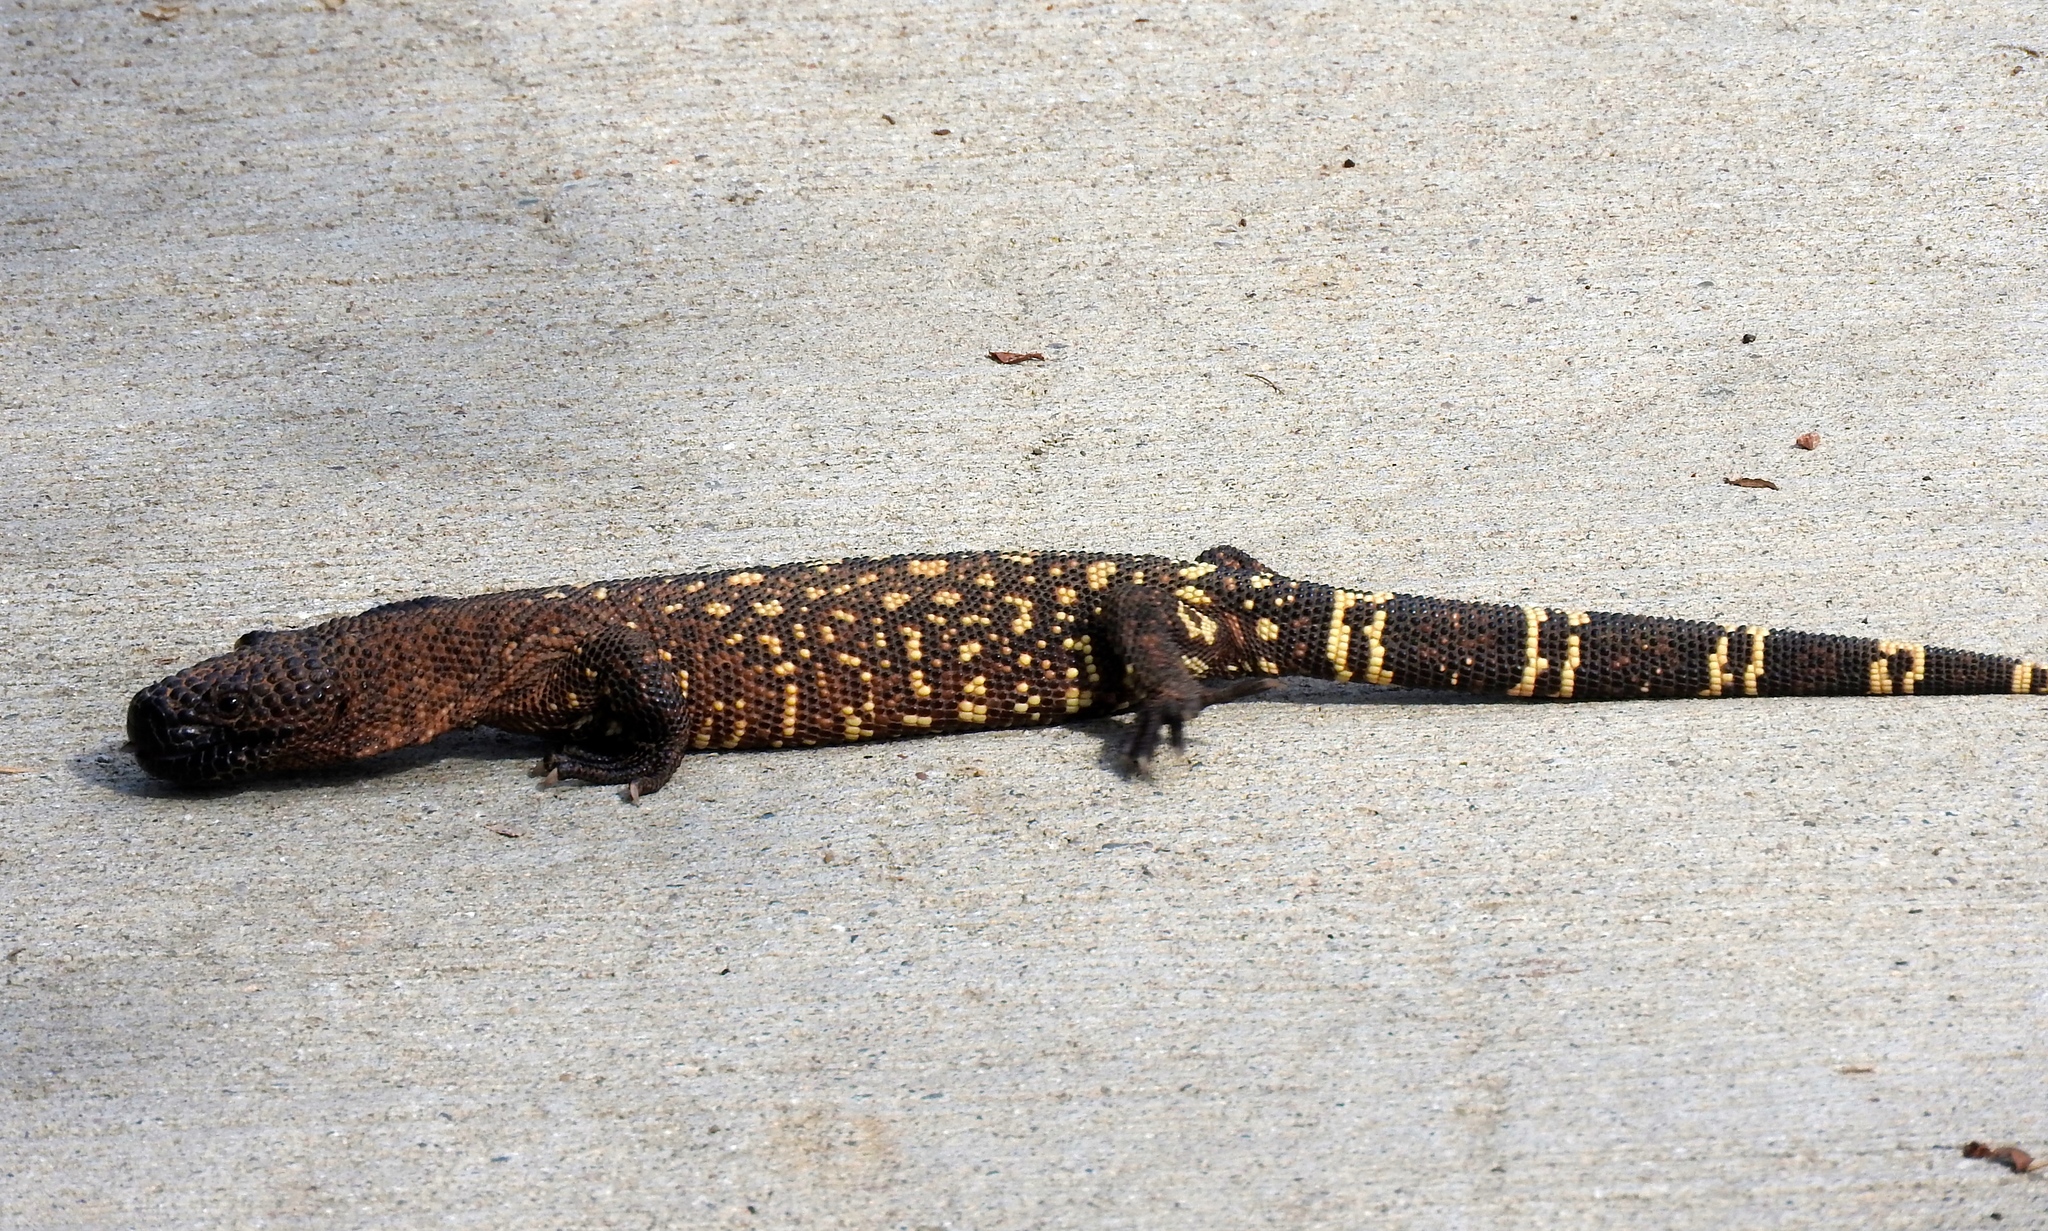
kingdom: Animalia
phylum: Chordata
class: Squamata
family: Helodermatidae
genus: Heloderma
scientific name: Heloderma horridum
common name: Mexican beaded lizard
